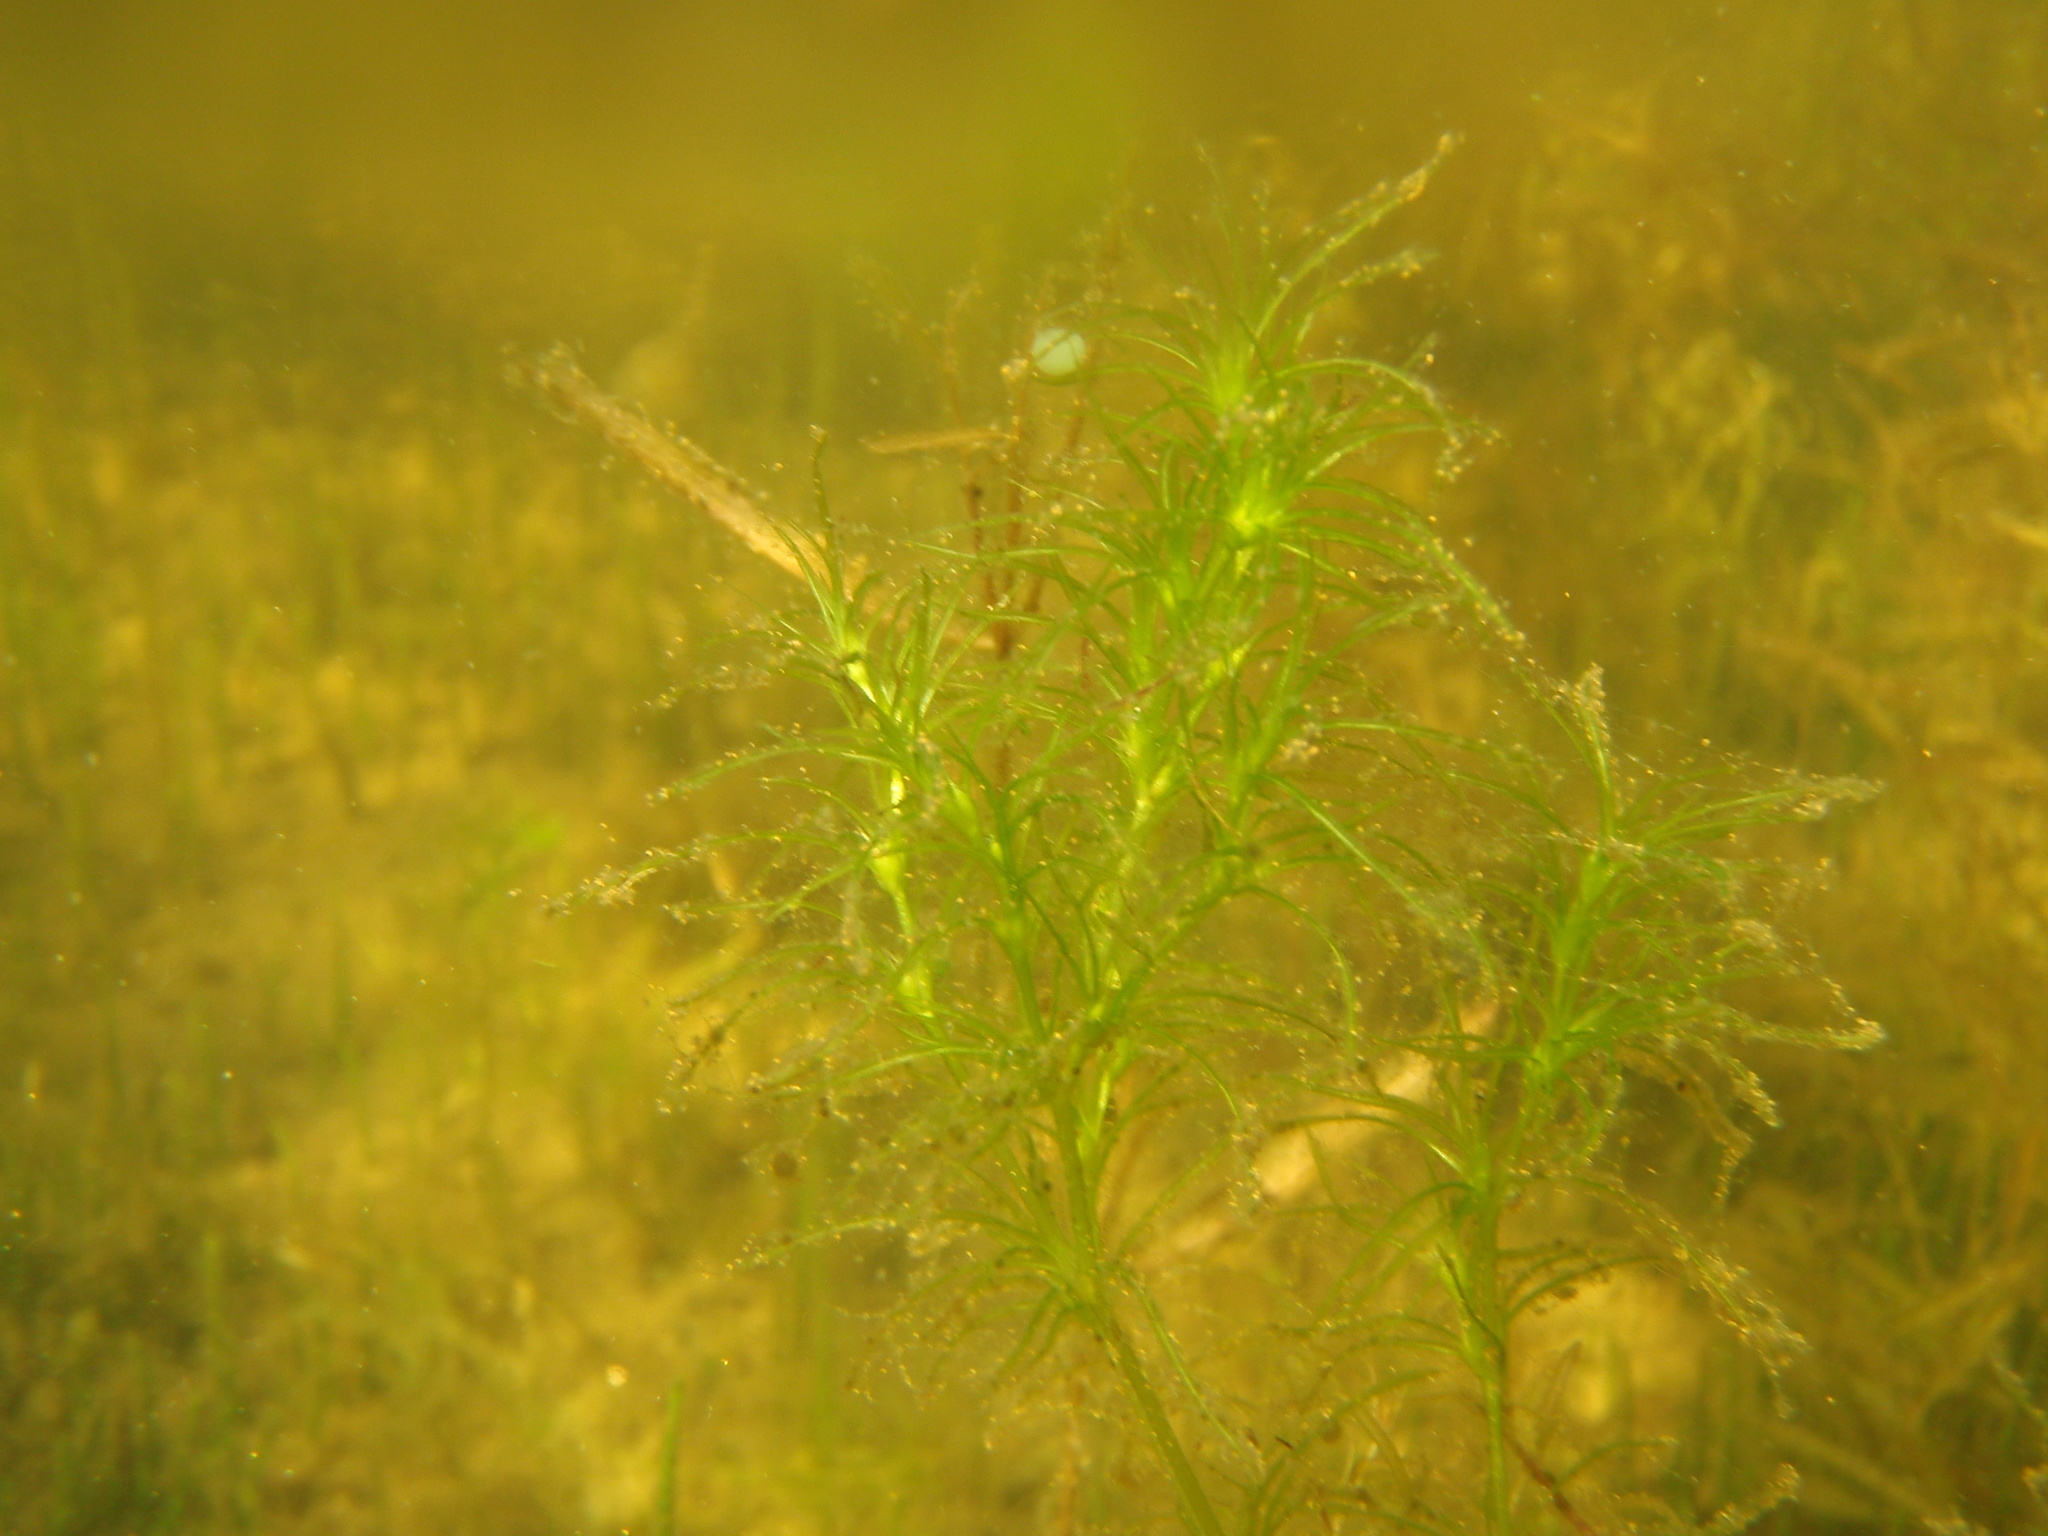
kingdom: Plantae
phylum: Tracheophyta
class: Liliopsida
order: Alismatales
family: Hydrocharitaceae
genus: Najas
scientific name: Najas flexilis
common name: Slender naiad
